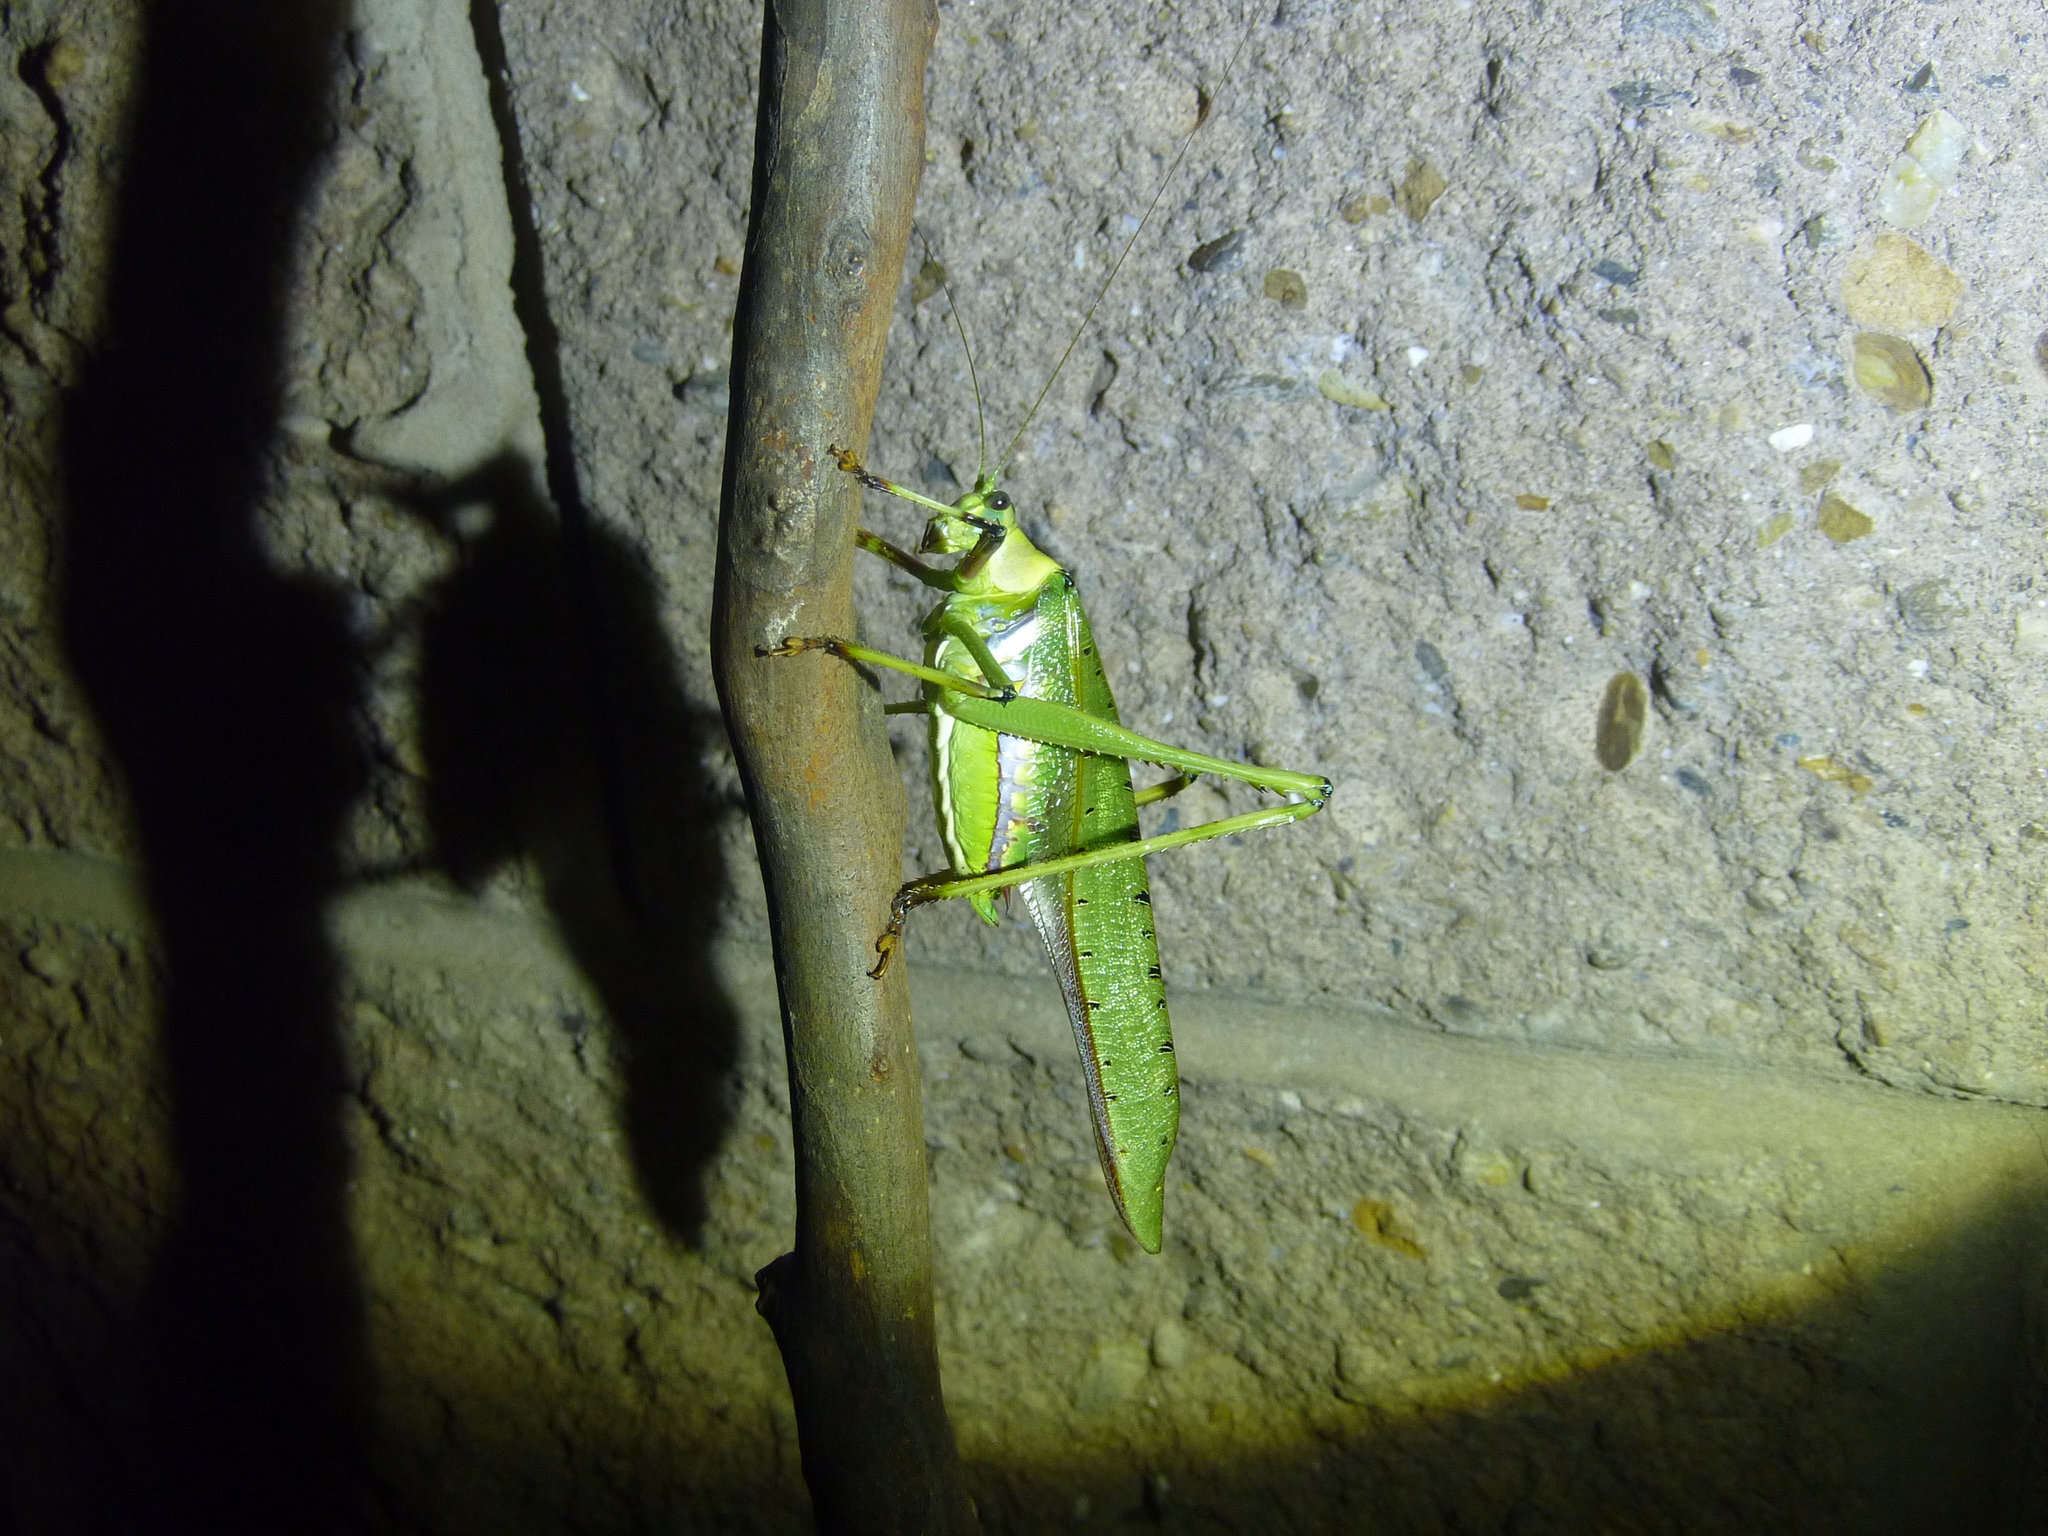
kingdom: Animalia
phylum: Arthropoda
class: Insecta
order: Orthoptera
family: Tettigoniidae
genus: Ephippitytha
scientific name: Ephippitytha trigintiduoguttata
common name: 32-spotted katydid
